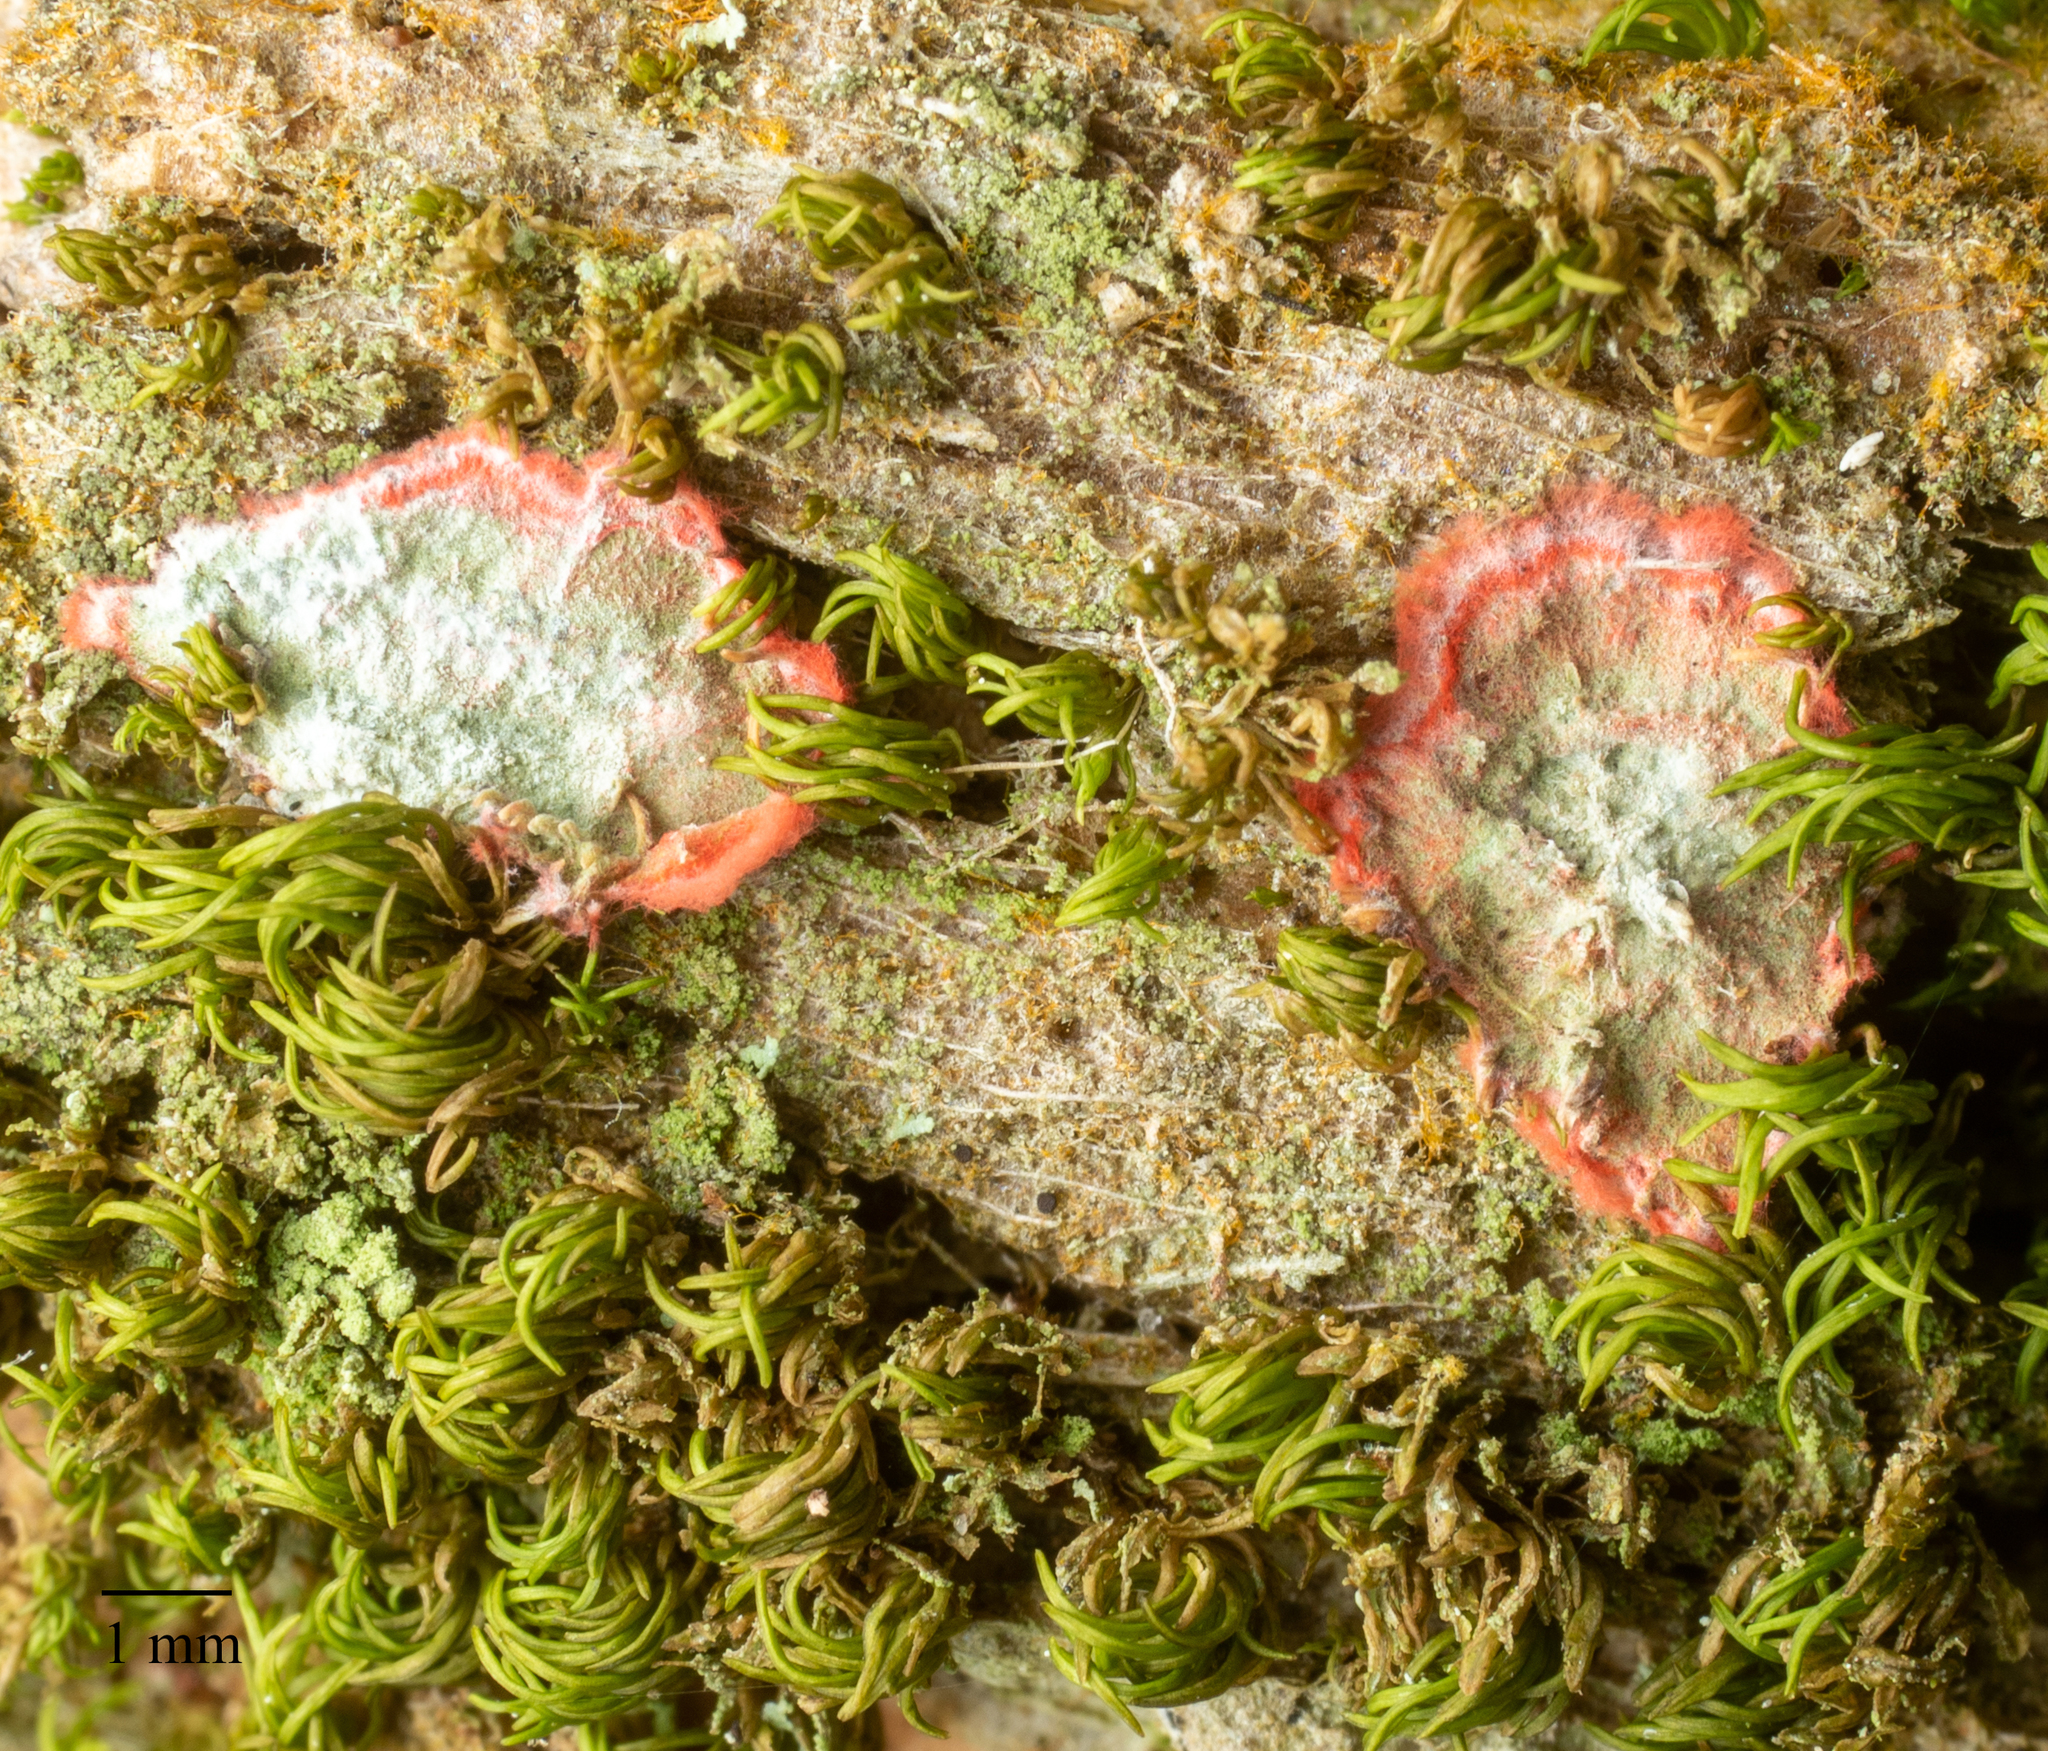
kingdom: Fungi
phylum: Ascomycota
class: Arthoniomycetes
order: Arthoniales
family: Arthoniaceae
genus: Herpothallon
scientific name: Herpothallon rubrocinctum
